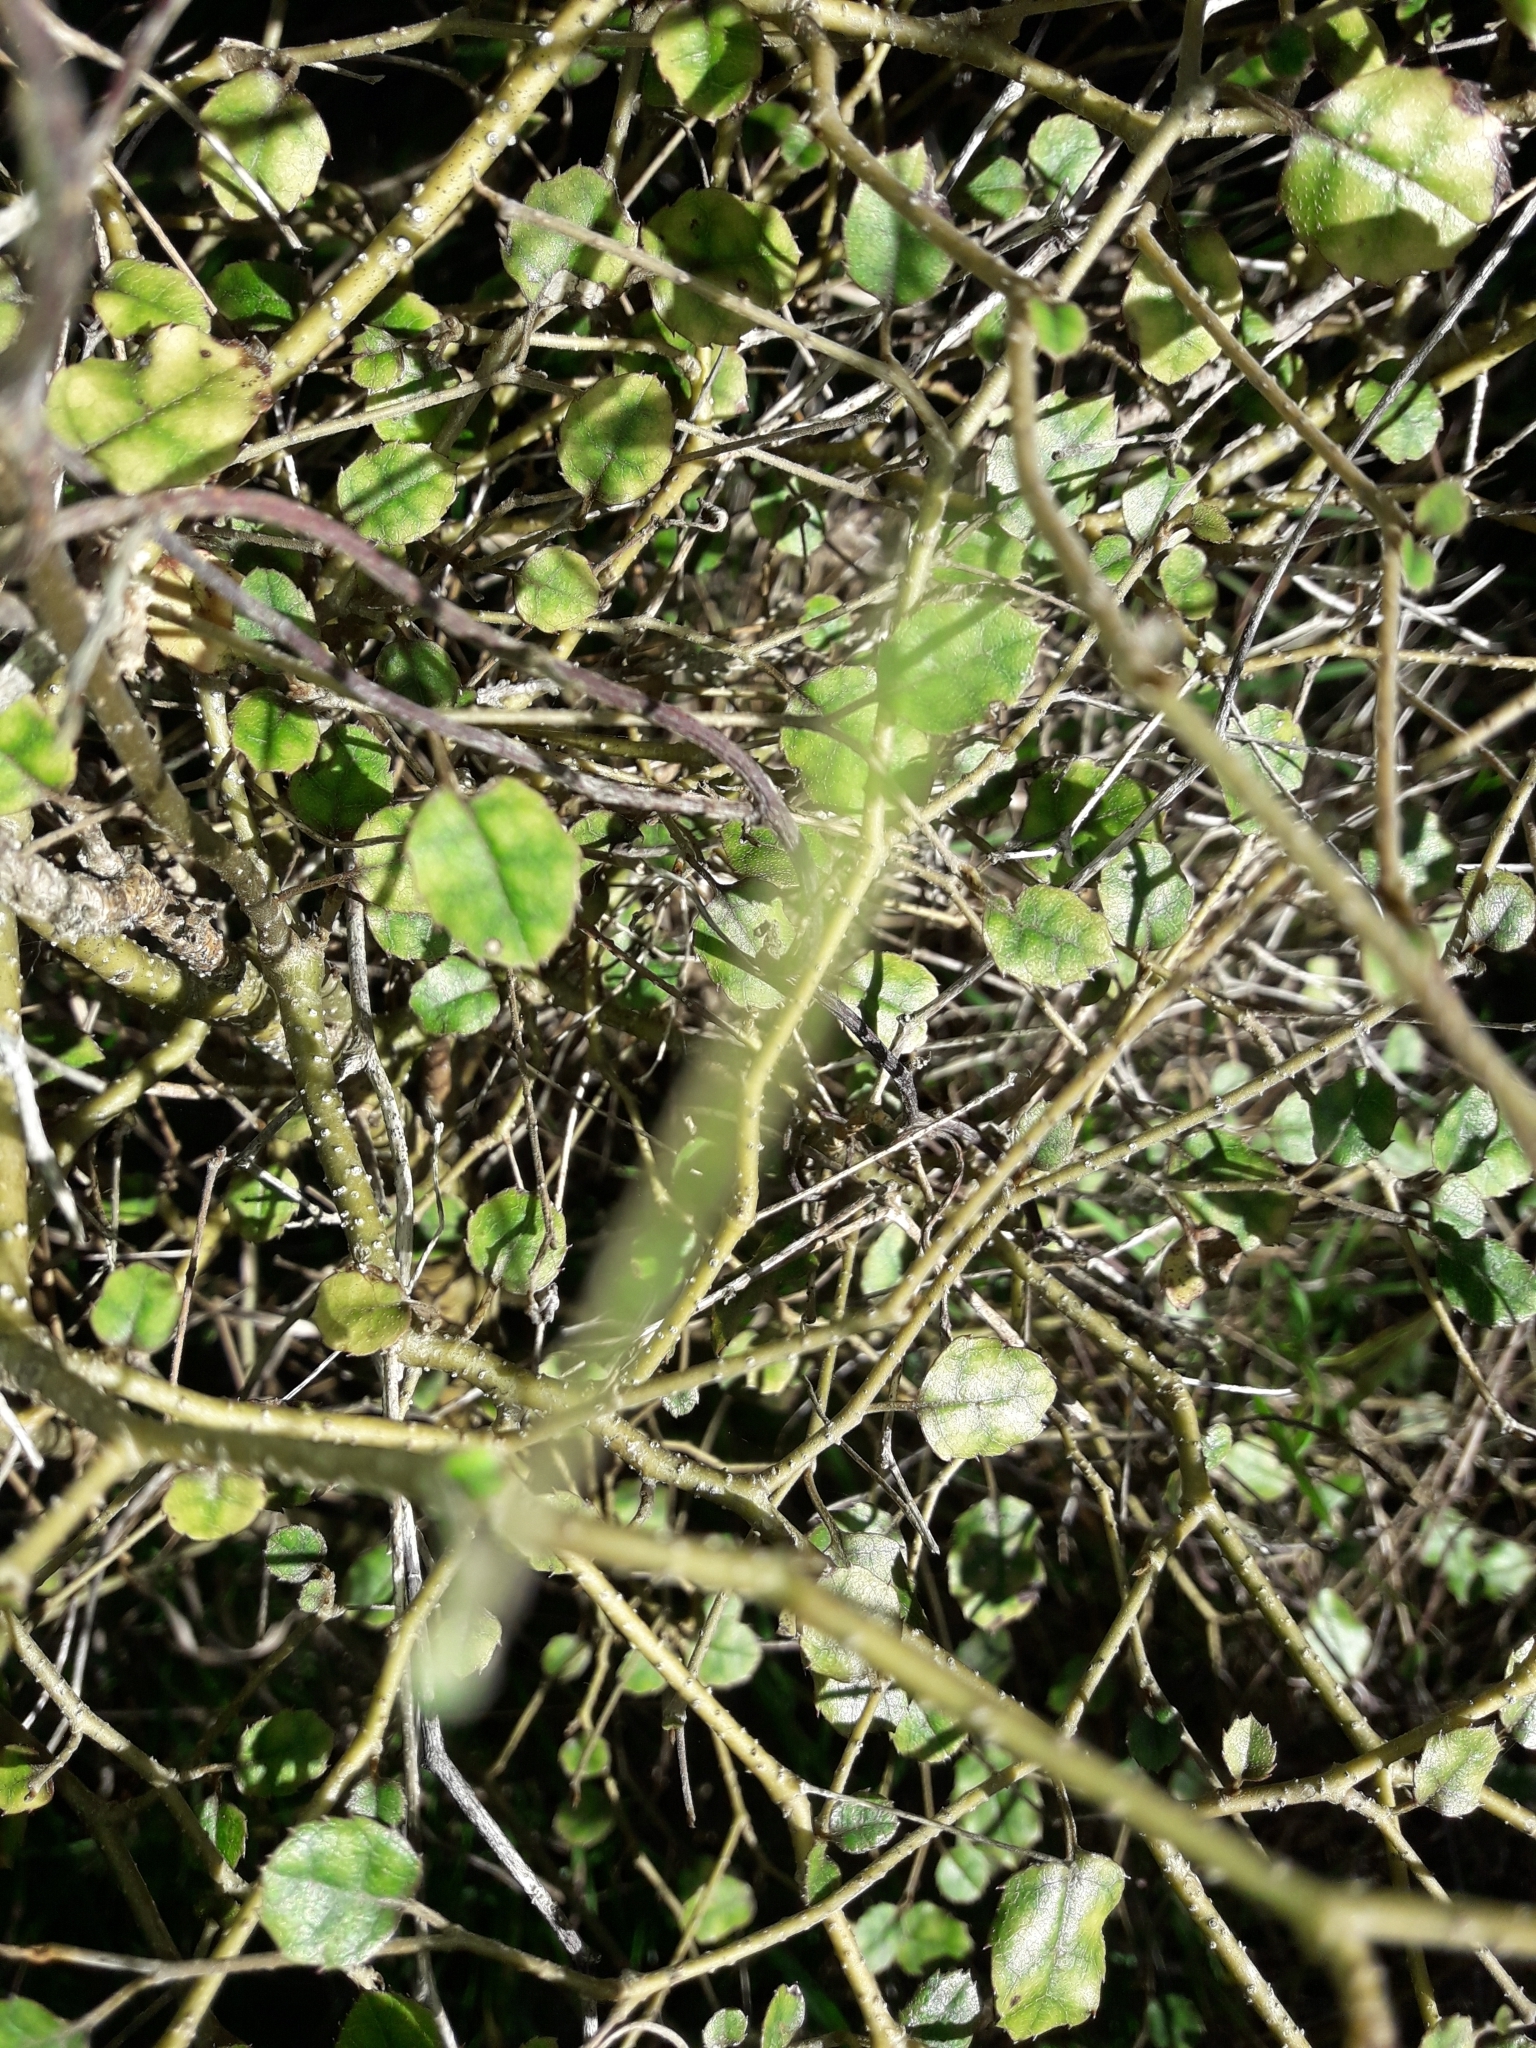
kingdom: Plantae
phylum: Tracheophyta
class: Magnoliopsida
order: Asterales
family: Rousseaceae
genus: Carpodetus
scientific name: Carpodetus serratus
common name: White mapau
